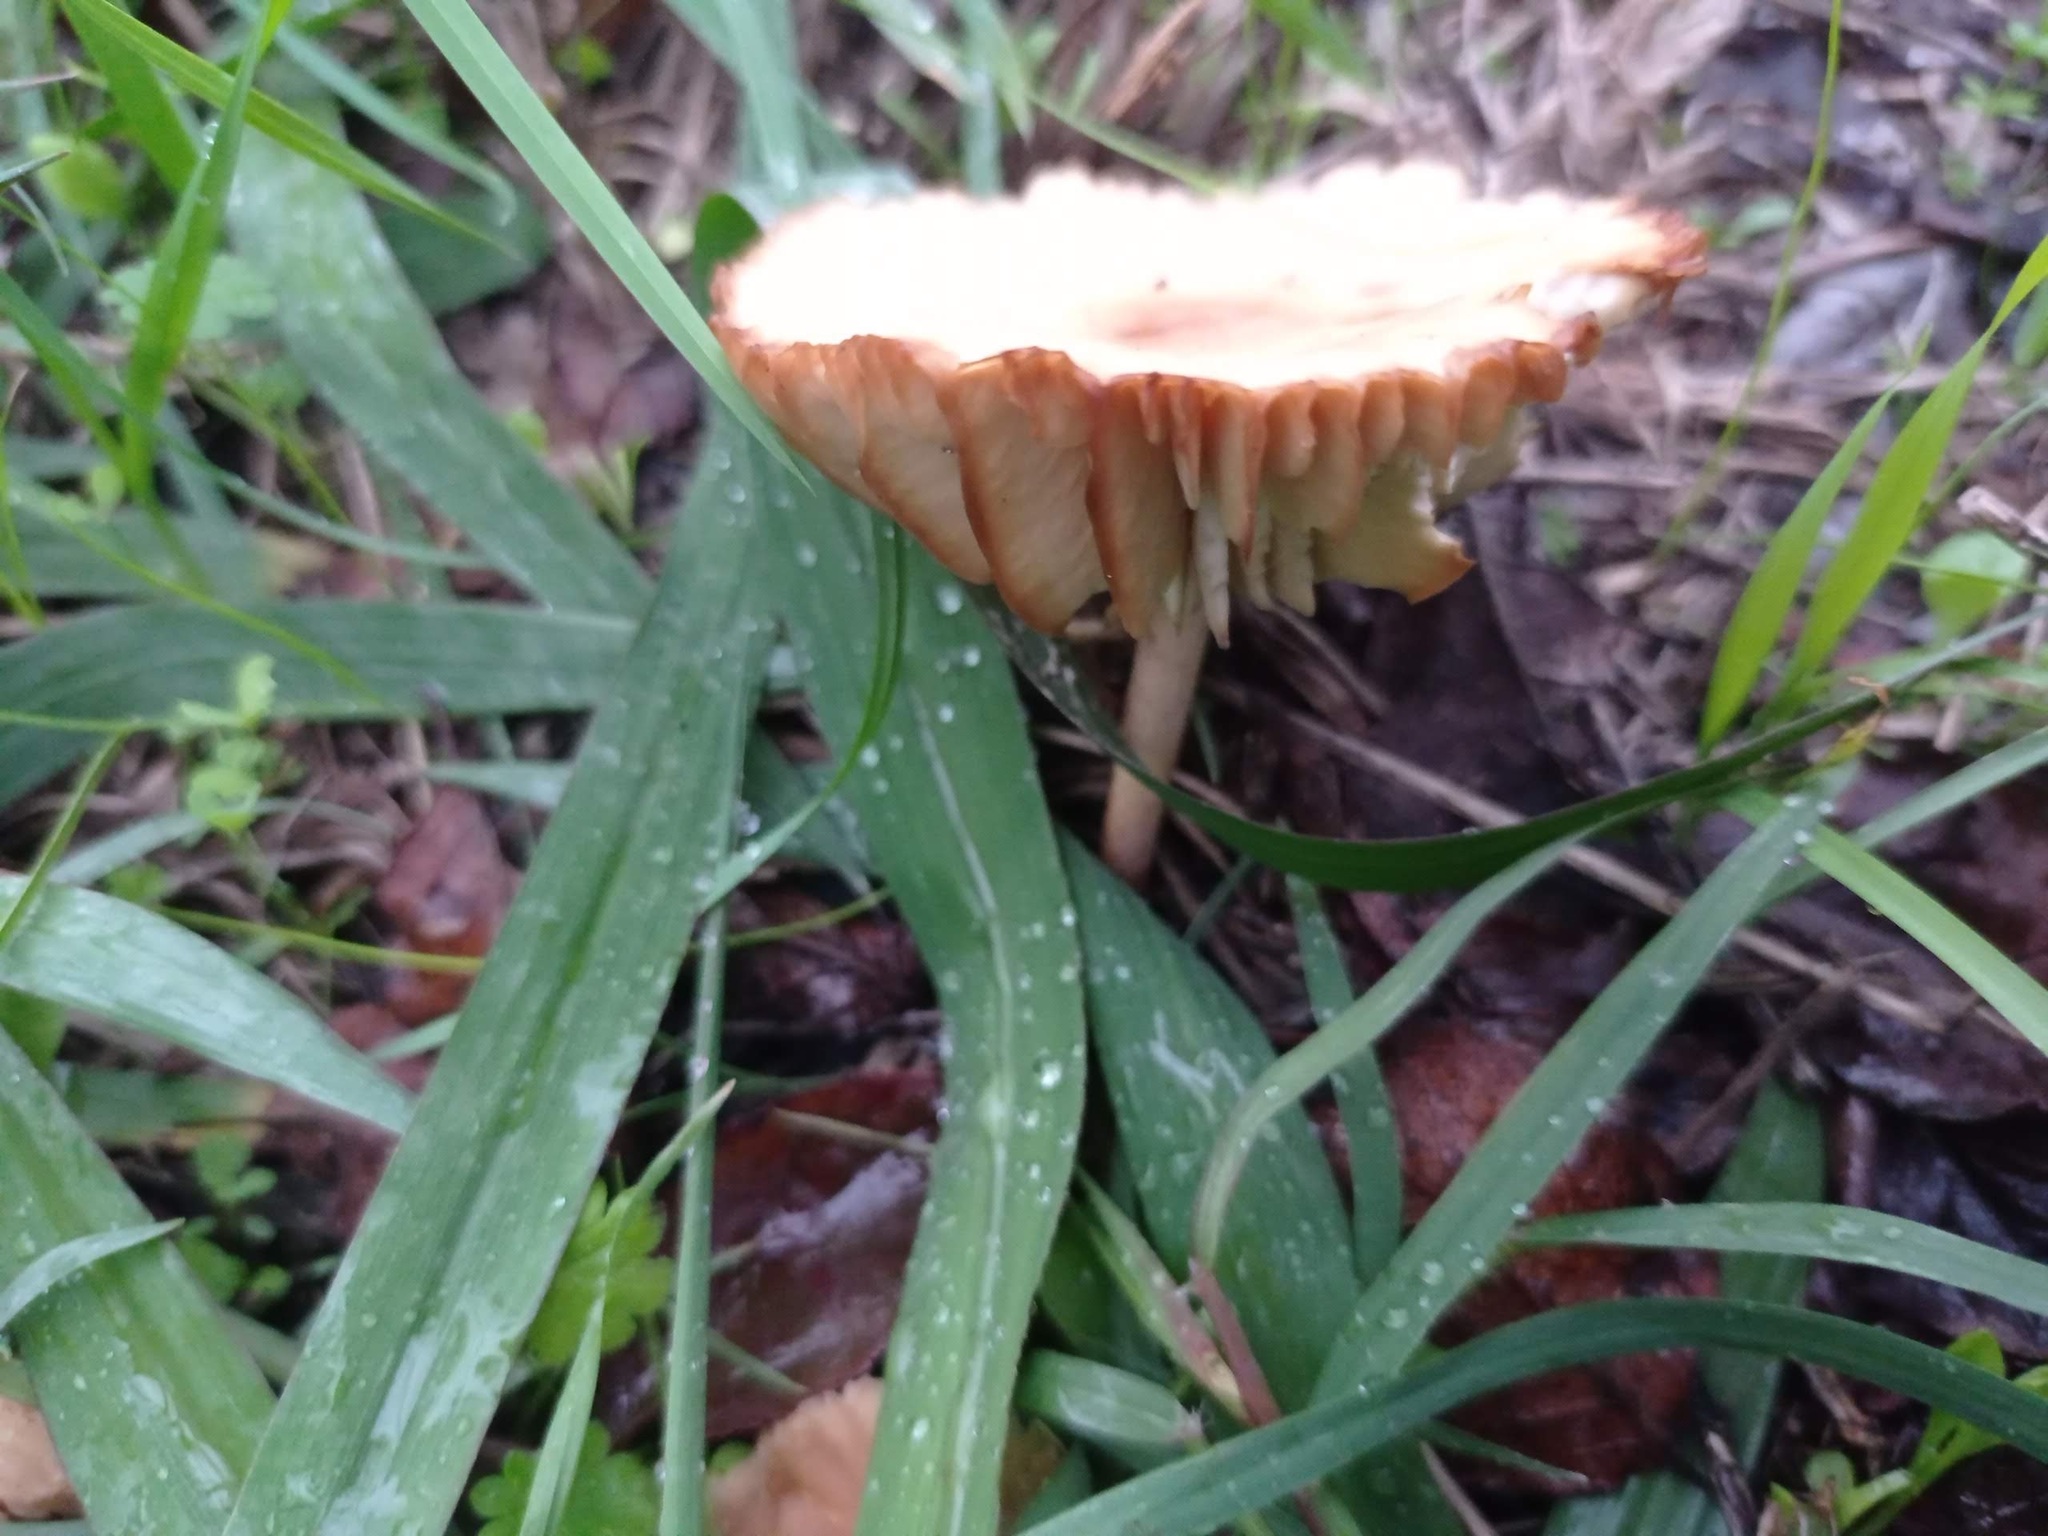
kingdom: Fungi
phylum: Basidiomycota
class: Agaricomycetes
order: Agaricales
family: Marasmiaceae
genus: Marasmius
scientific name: Marasmius oreades
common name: Fairy ring champignon
